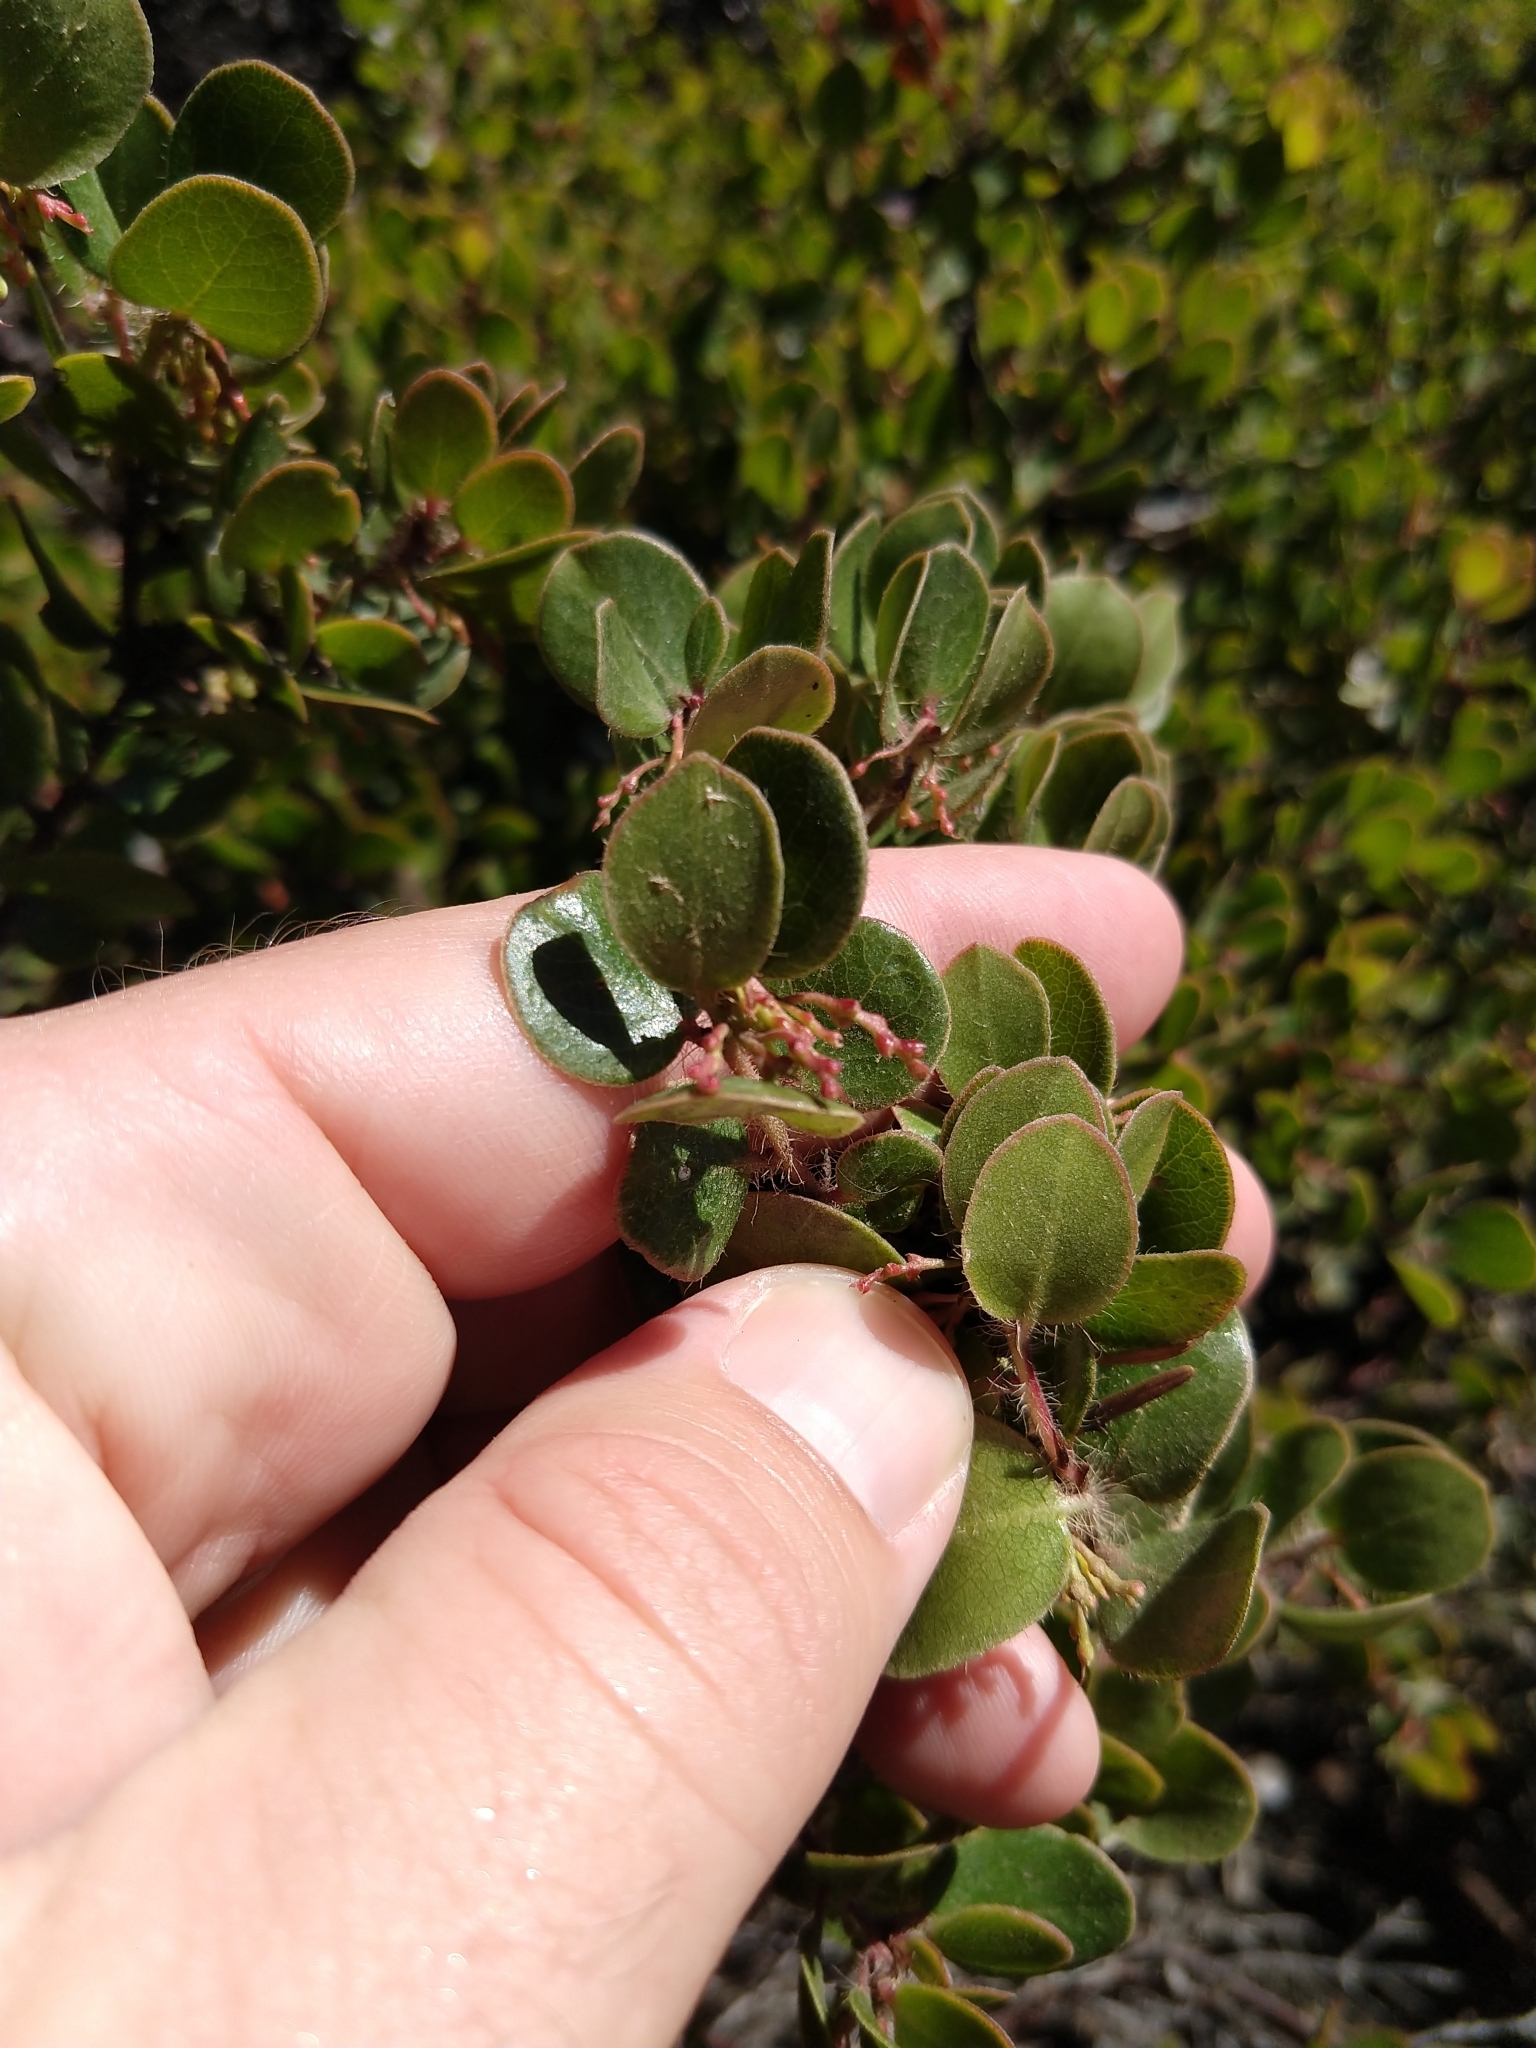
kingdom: Plantae
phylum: Tracheophyta
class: Magnoliopsida
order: Ericales
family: Ericaceae
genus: Arctostaphylos
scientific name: Arctostaphylos nummularia
